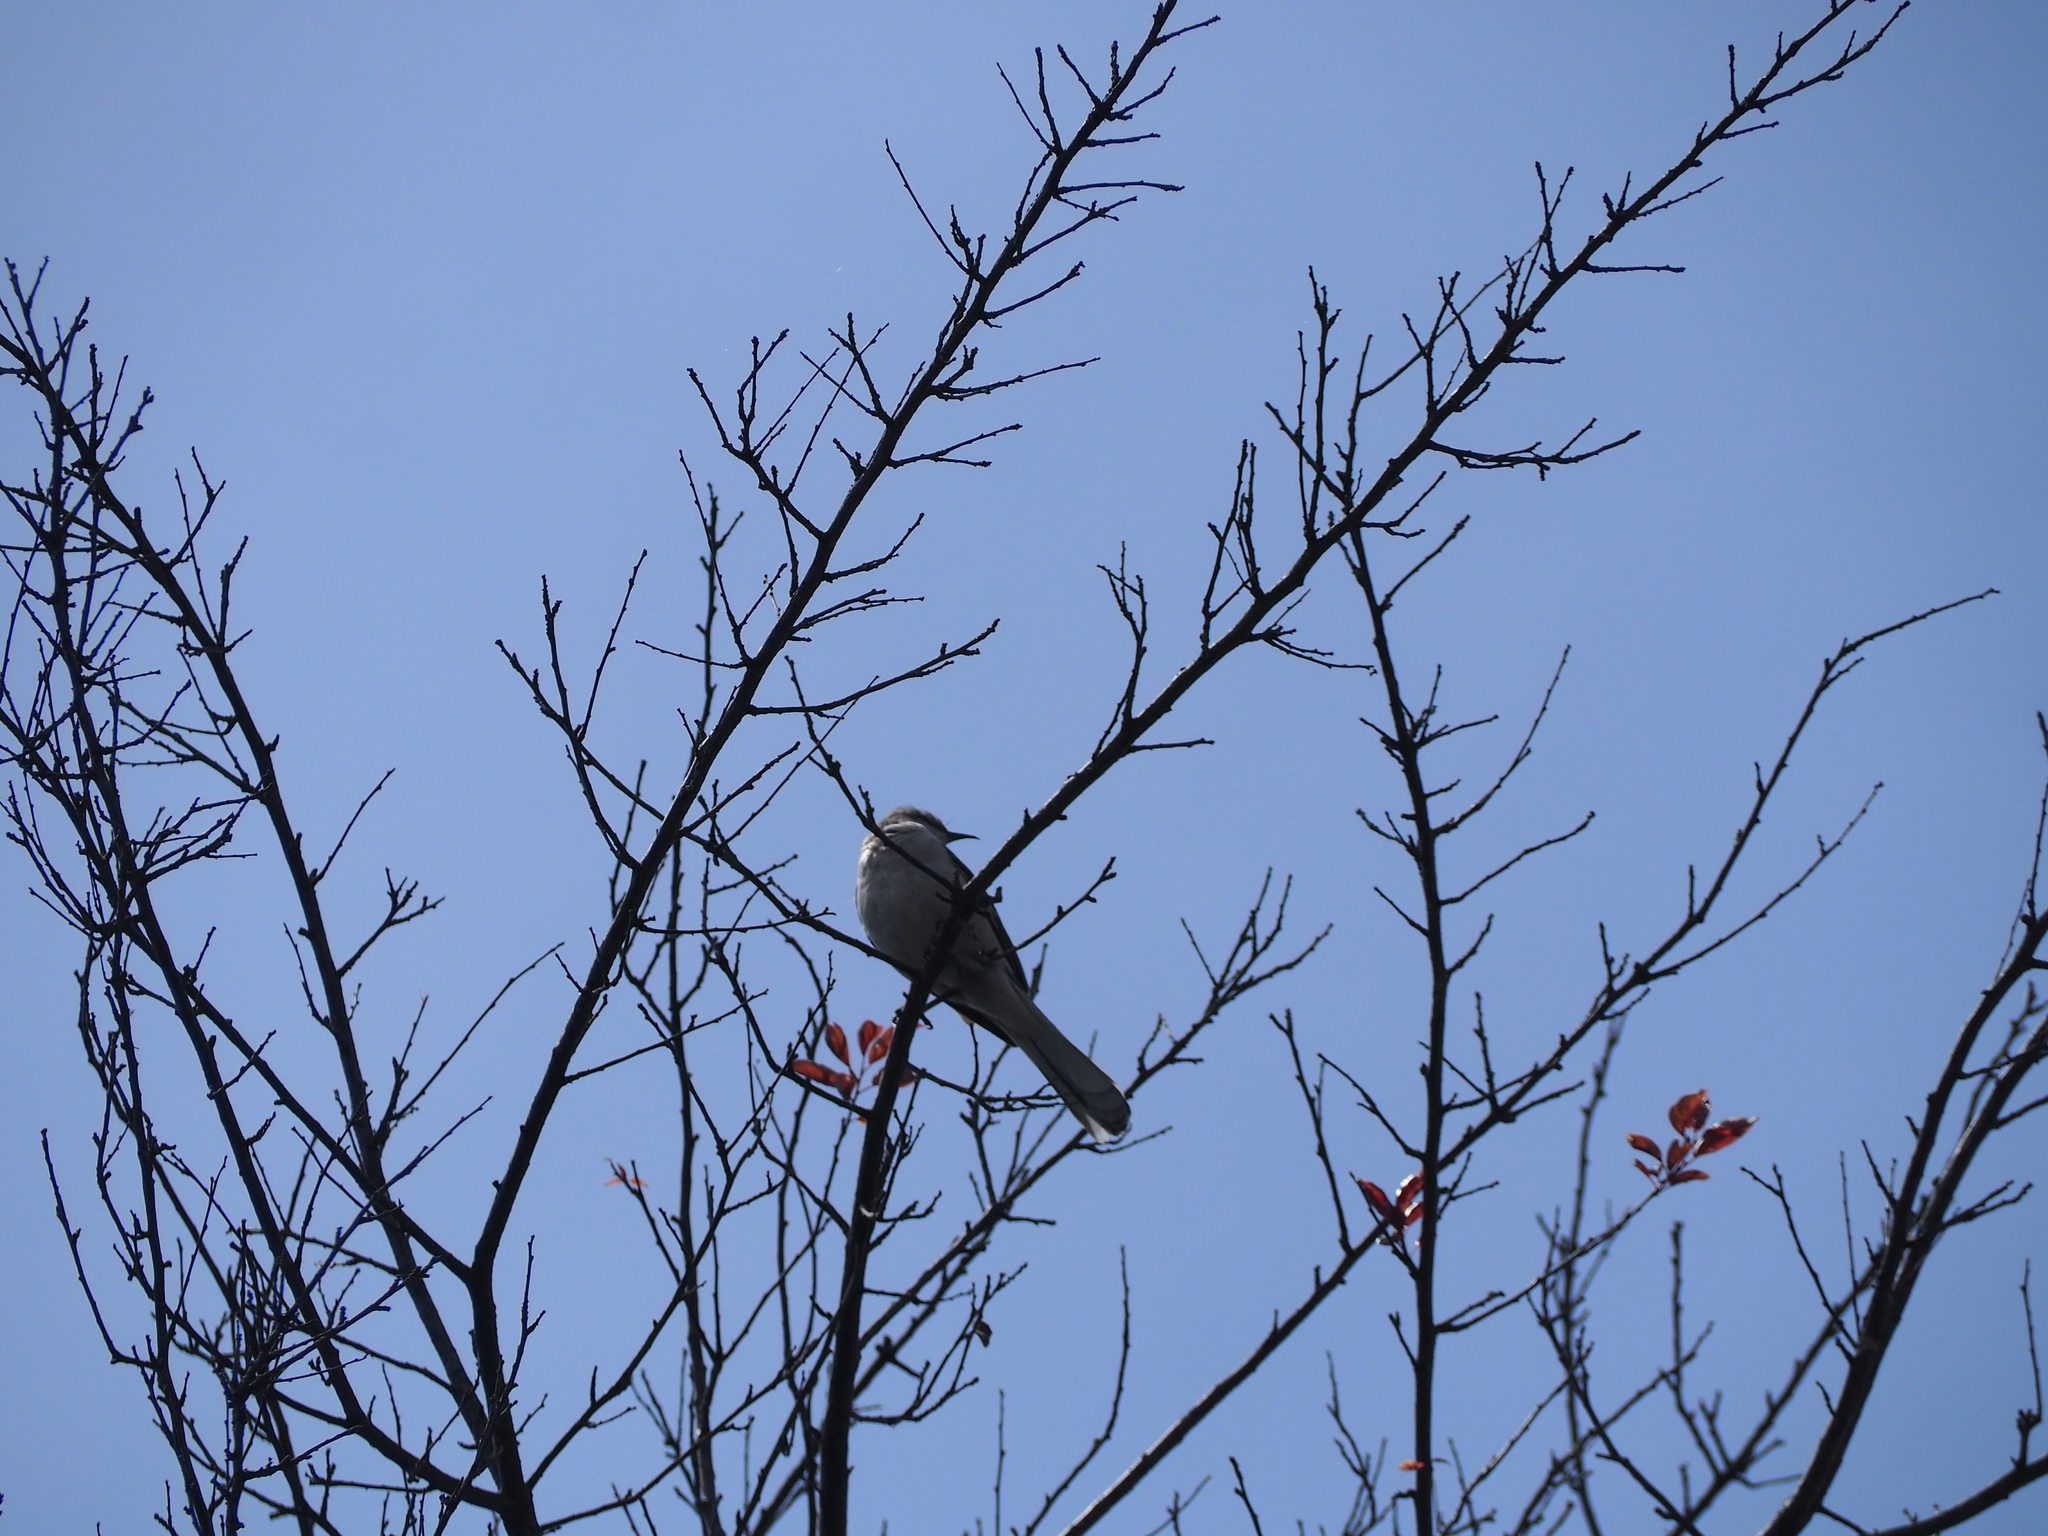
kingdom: Animalia
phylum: Chordata
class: Aves
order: Passeriformes
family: Mimidae
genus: Mimus
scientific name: Mimus polyglottos
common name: Northern mockingbird
